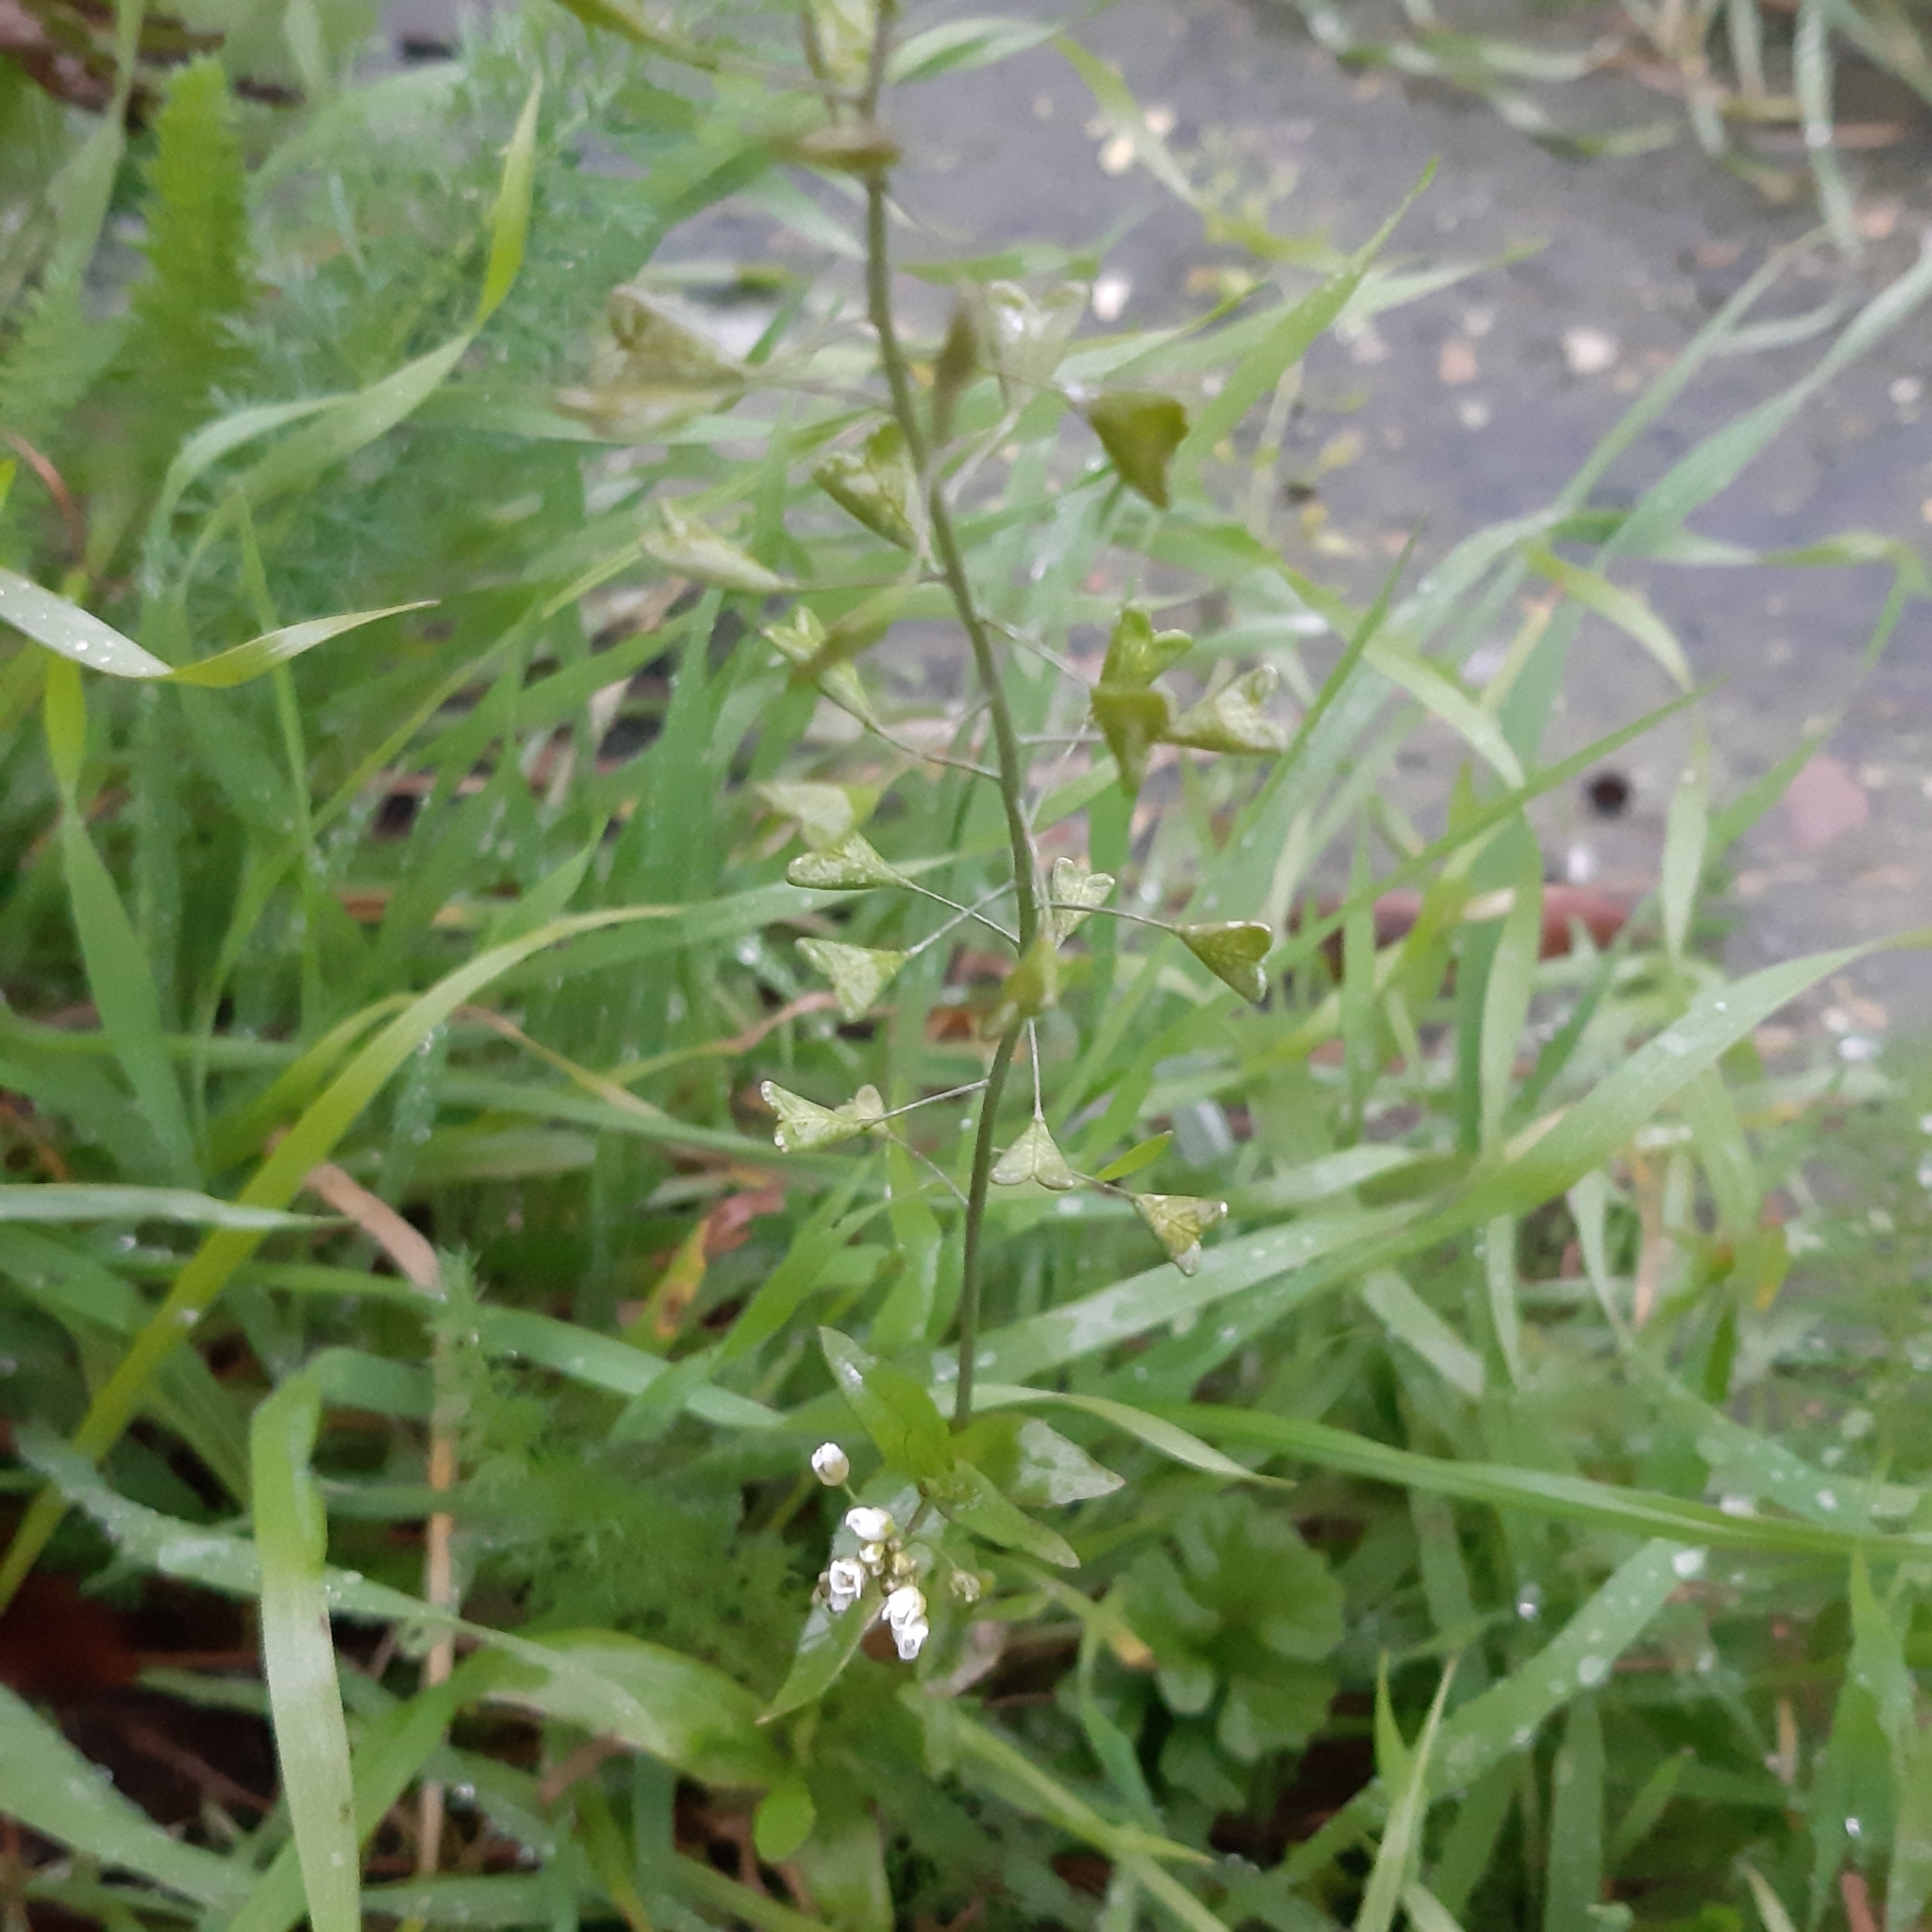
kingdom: Plantae
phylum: Tracheophyta
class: Magnoliopsida
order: Brassicales
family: Brassicaceae
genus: Capsella
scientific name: Capsella bursa-pastoris
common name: Shepherd's purse
